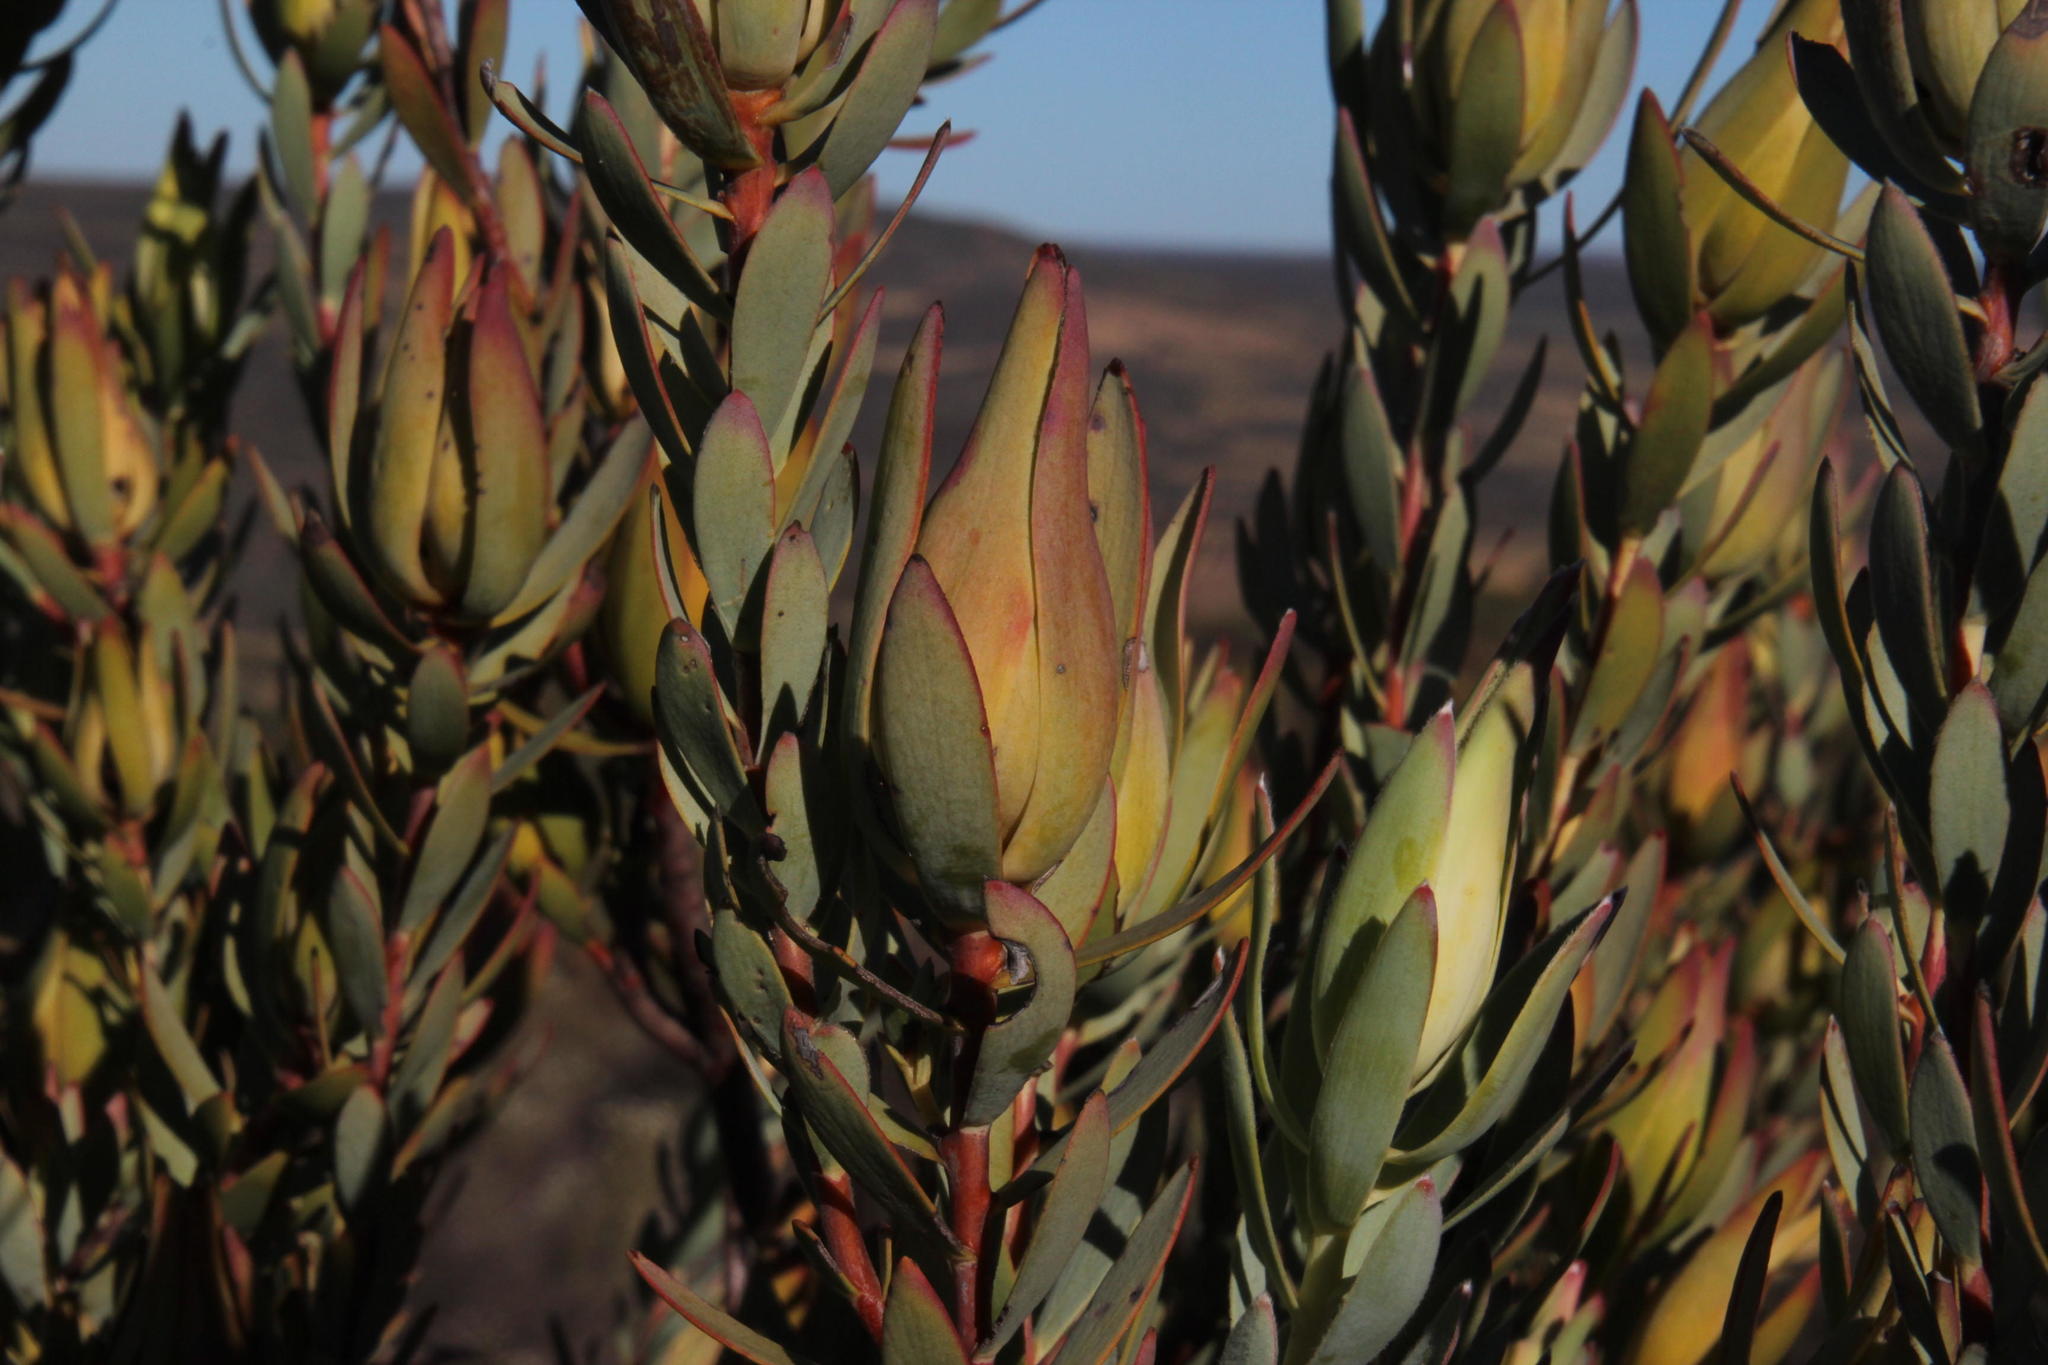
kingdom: Plantae
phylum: Tracheophyta
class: Magnoliopsida
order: Proteales
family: Proteaceae
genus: Leucadendron
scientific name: Leucadendron procerum
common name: Ivory conebush
